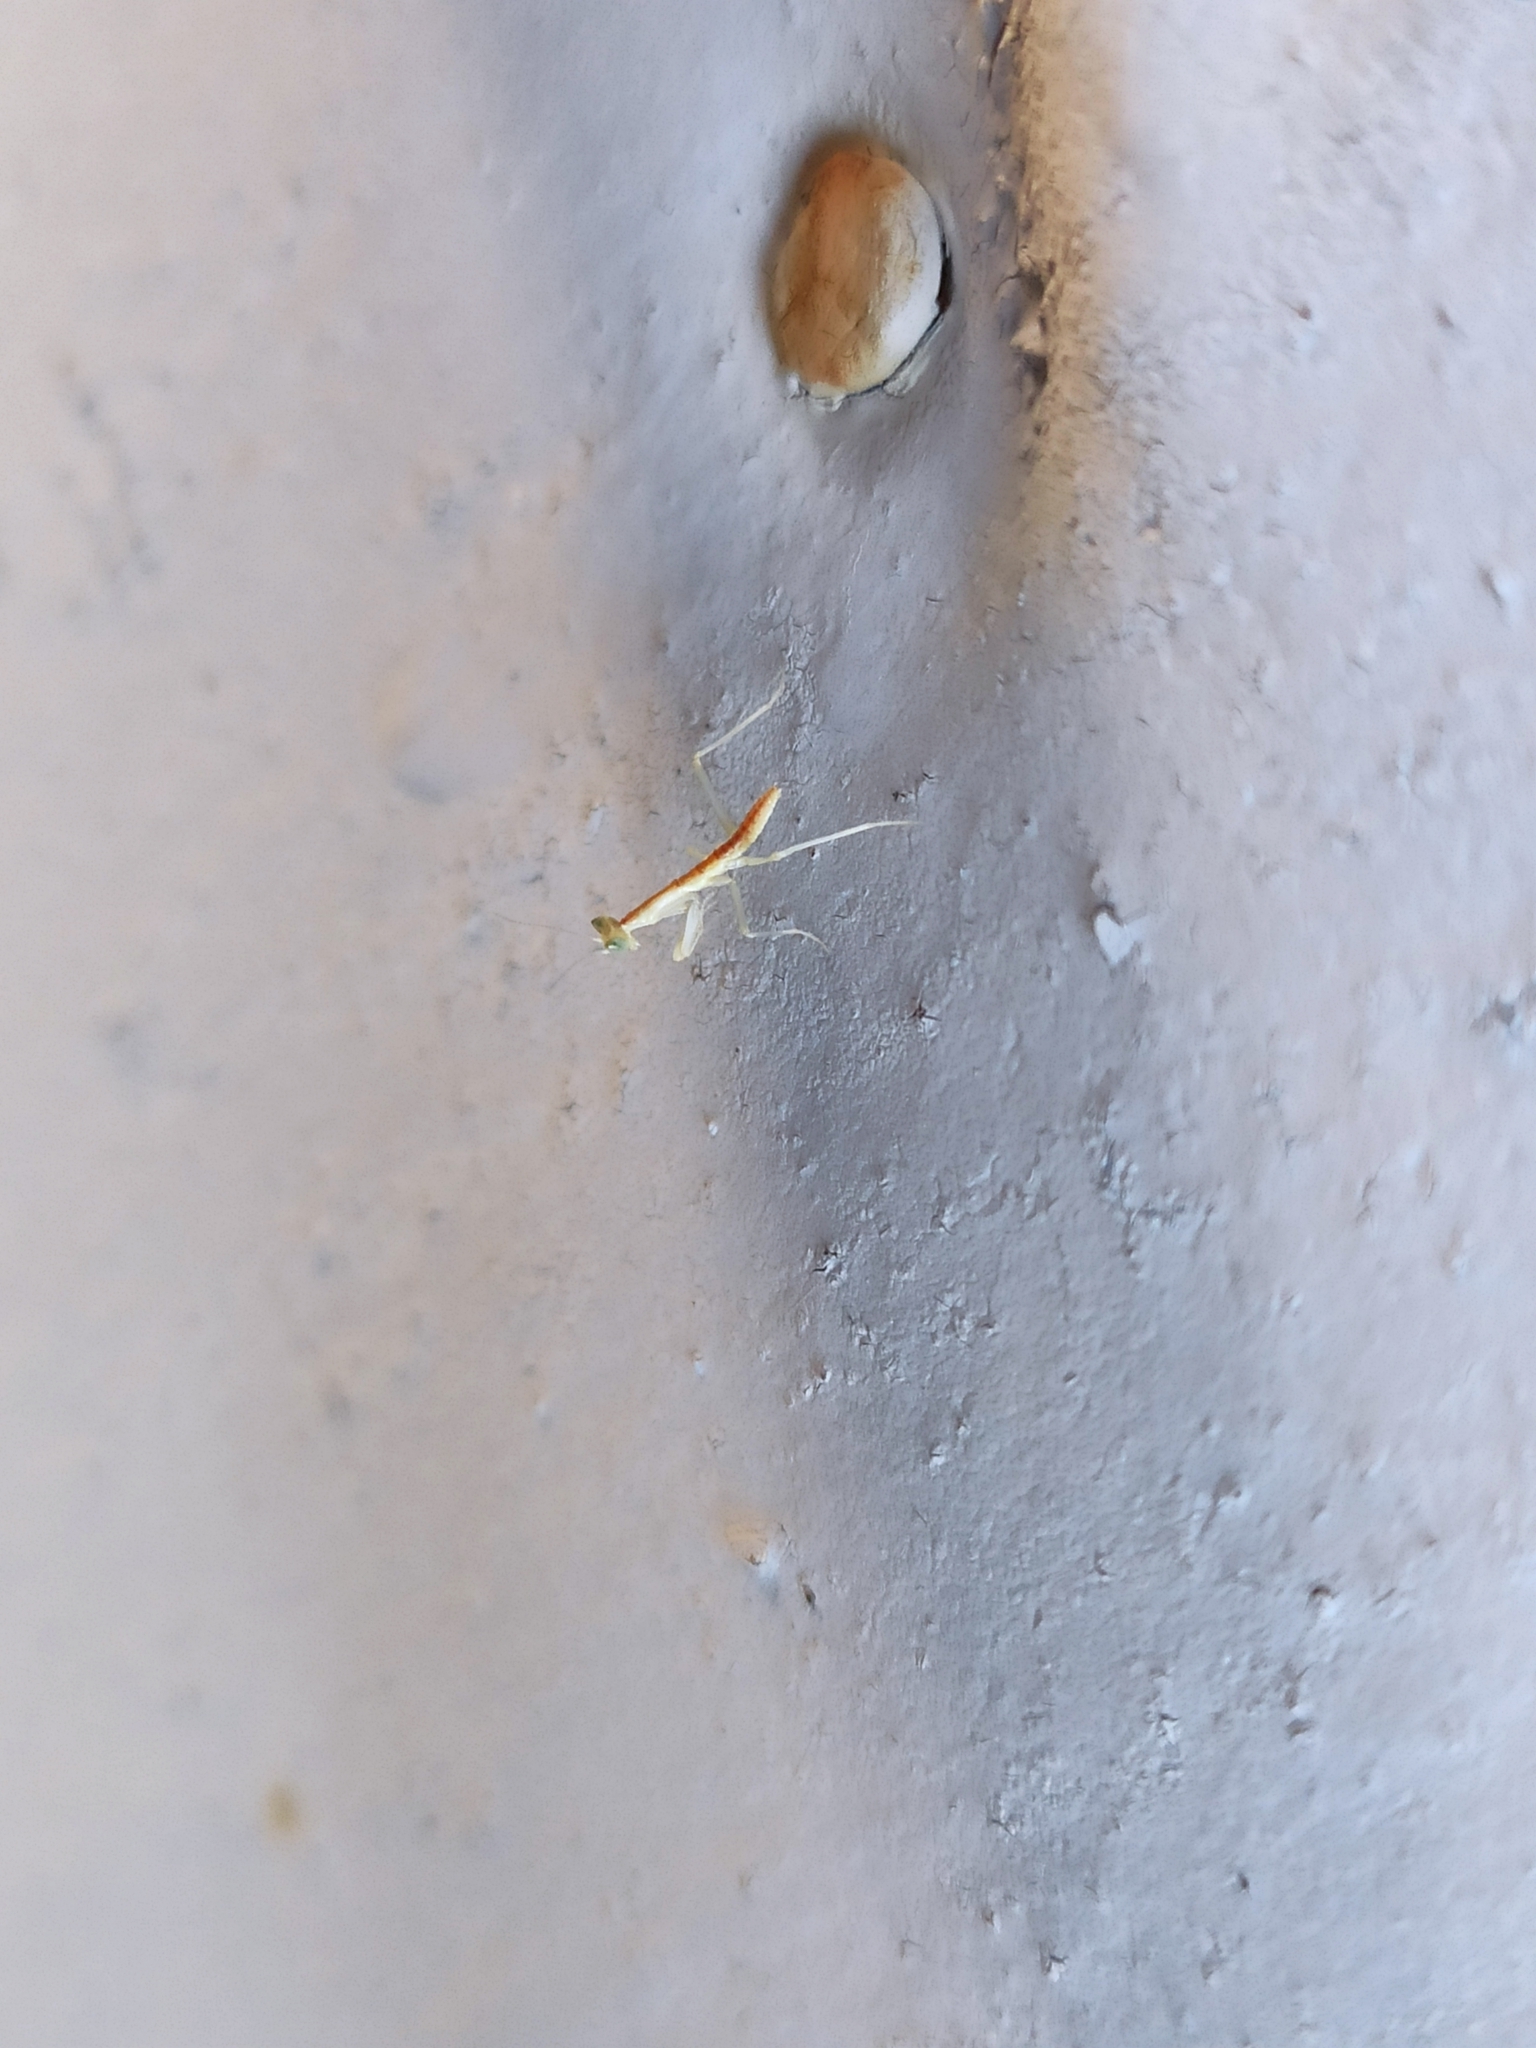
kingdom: Animalia
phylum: Arthropoda
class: Insecta
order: Mantodea
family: Eremiaphilidae
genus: Iris
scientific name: Iris polystictica
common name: Dot-winged mantis
